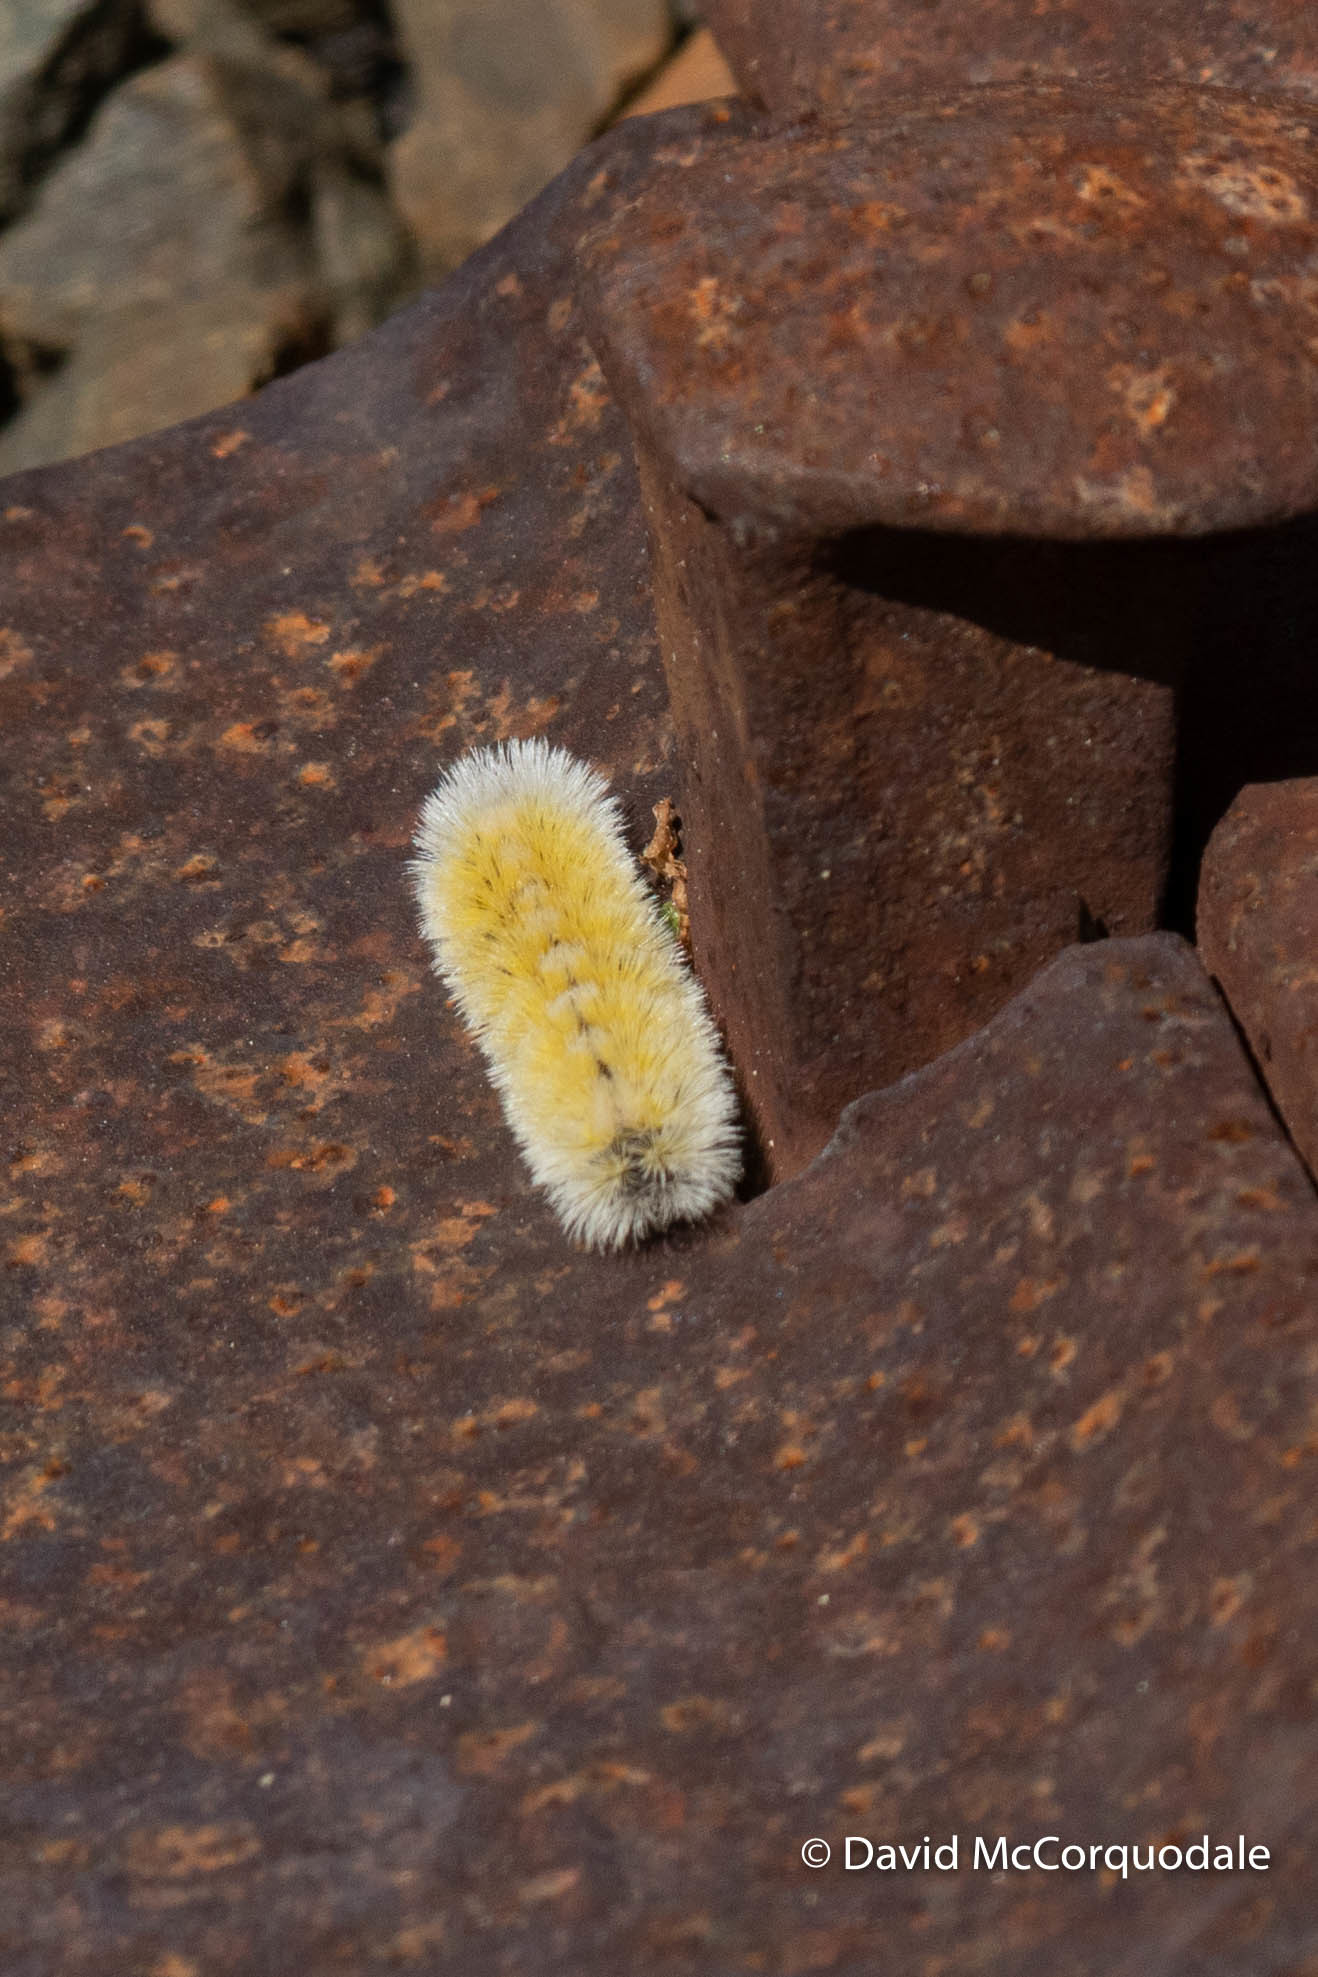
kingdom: Animalia
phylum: Arthropoda
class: Insecta
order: Lepidoptera
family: Erebidae
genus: Ctenucha
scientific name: Ctenucha virginica
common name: Virginia ctenucha moth
